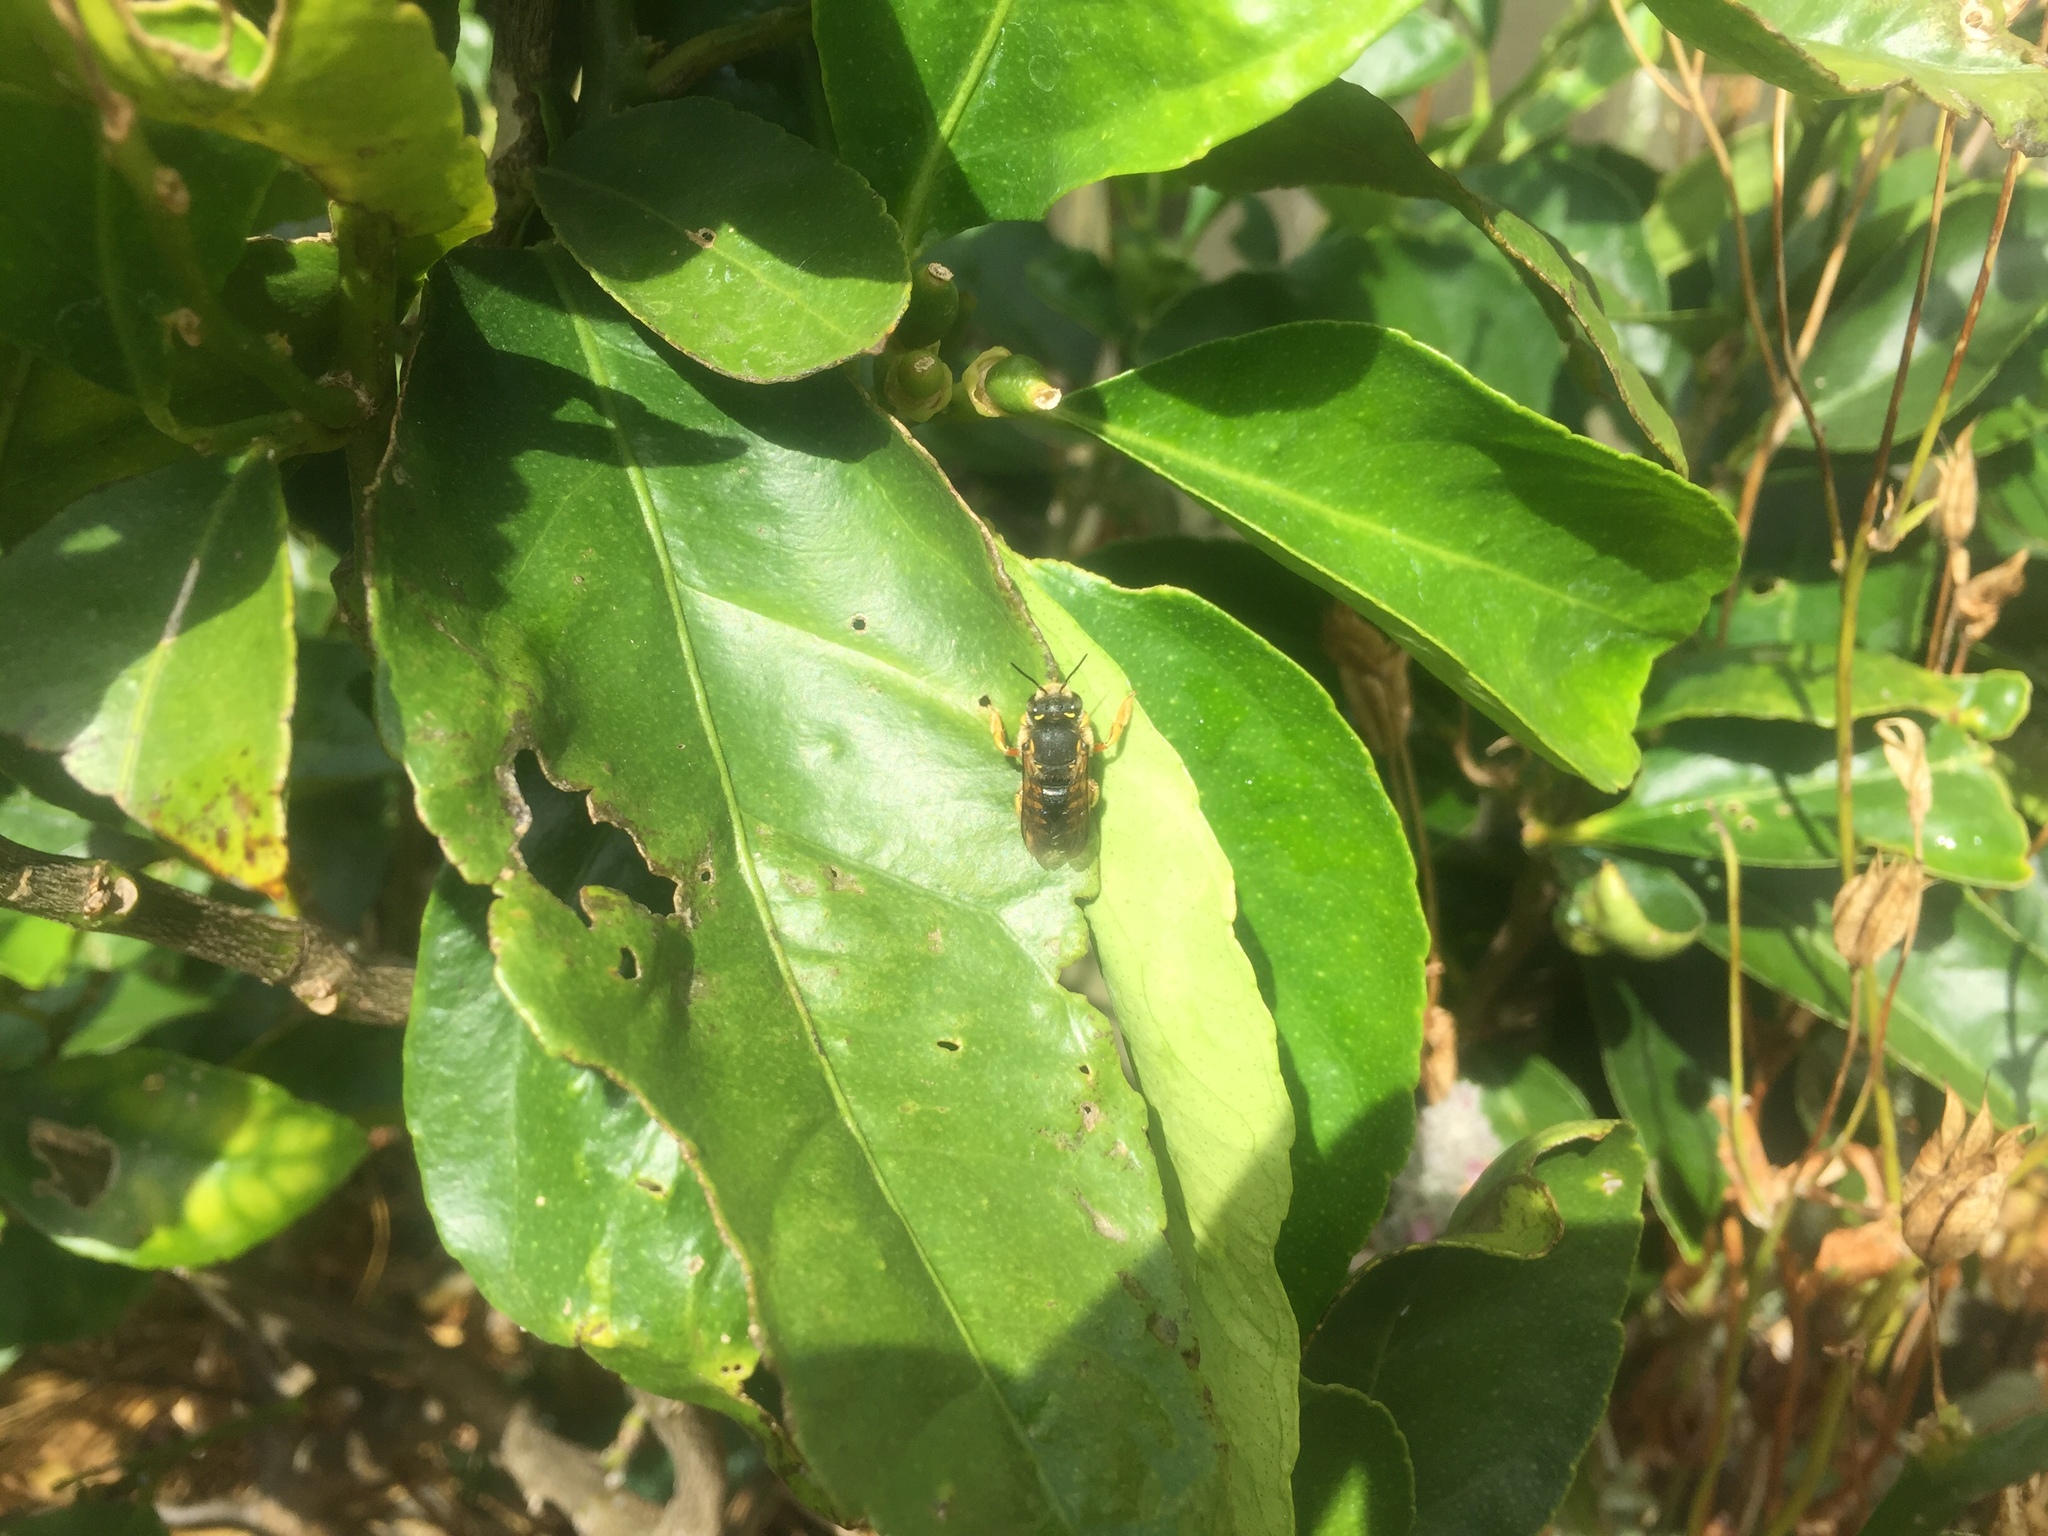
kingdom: Animalia
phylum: Arthropoda
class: Insecta
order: Hymenoptera
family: Megachilidae
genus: Anthidium
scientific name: Anthidium manicatum
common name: Wool carder bee
